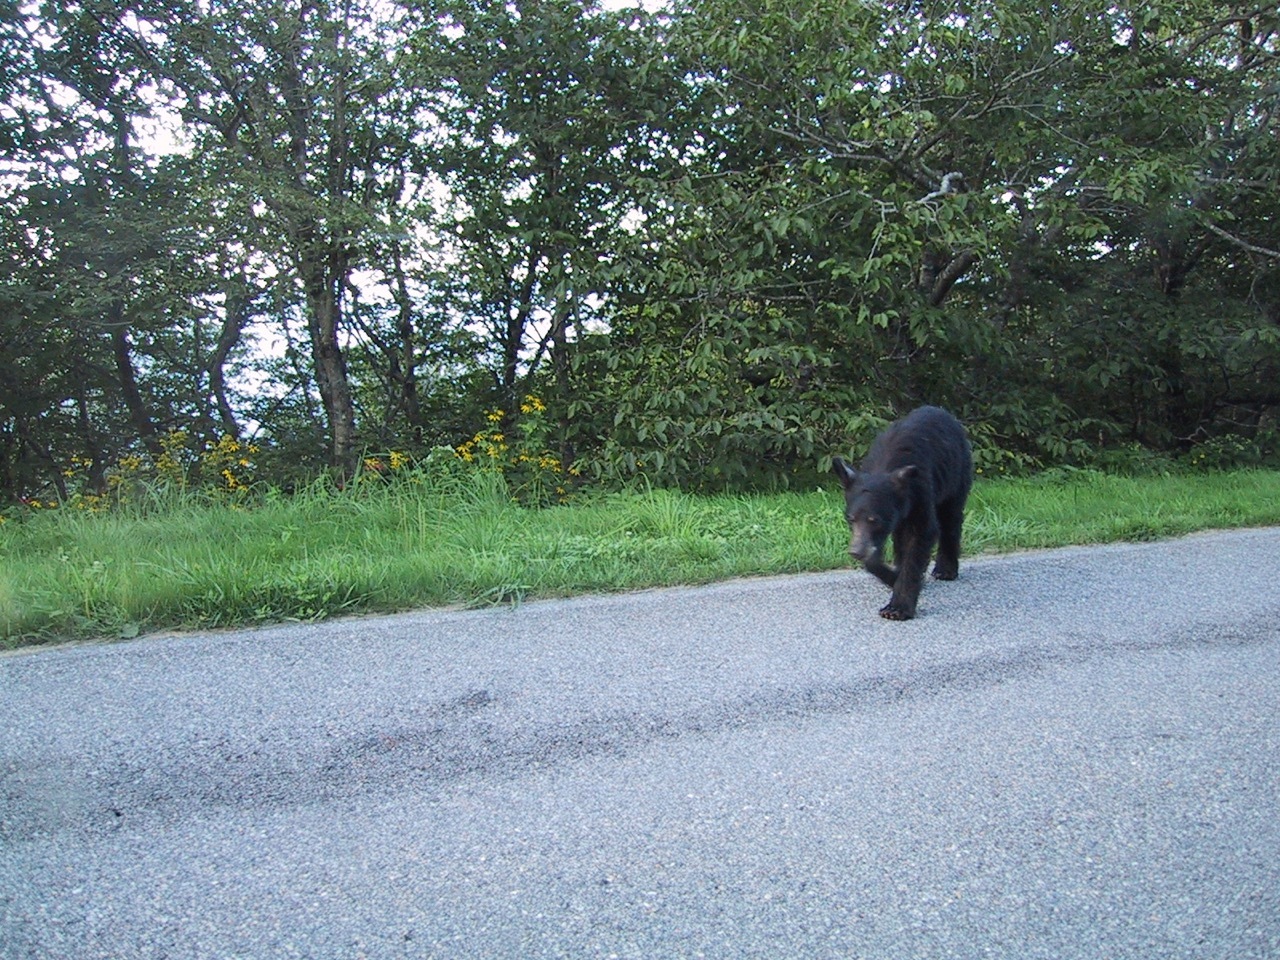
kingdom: Animalia
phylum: Chordata
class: Mammalia
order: Carnivora
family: Ursidae
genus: Ursus
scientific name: Ursus americanus
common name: American black bear
